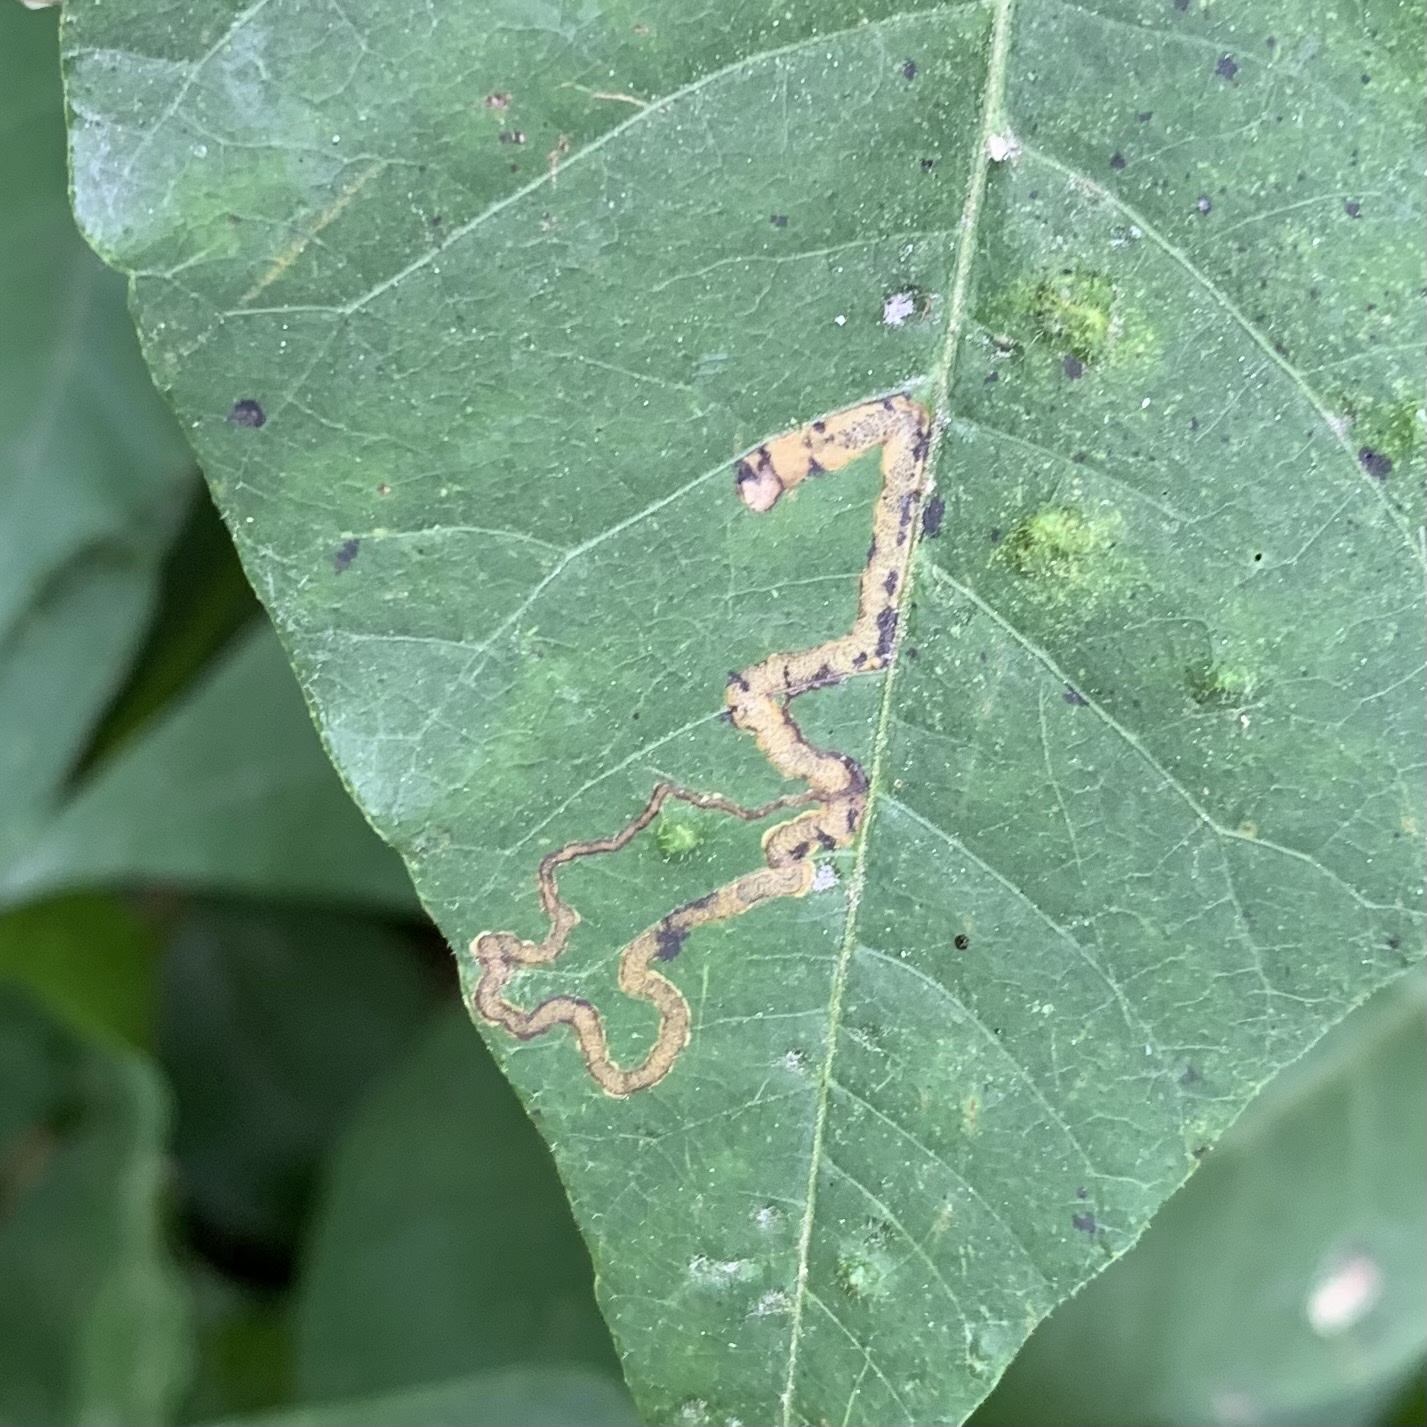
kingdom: Animalia
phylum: Arthropoda
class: Insecta
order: Lepidoptera
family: Nepticulidae
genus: Stigmella
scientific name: Stigmella rhoifoliella
